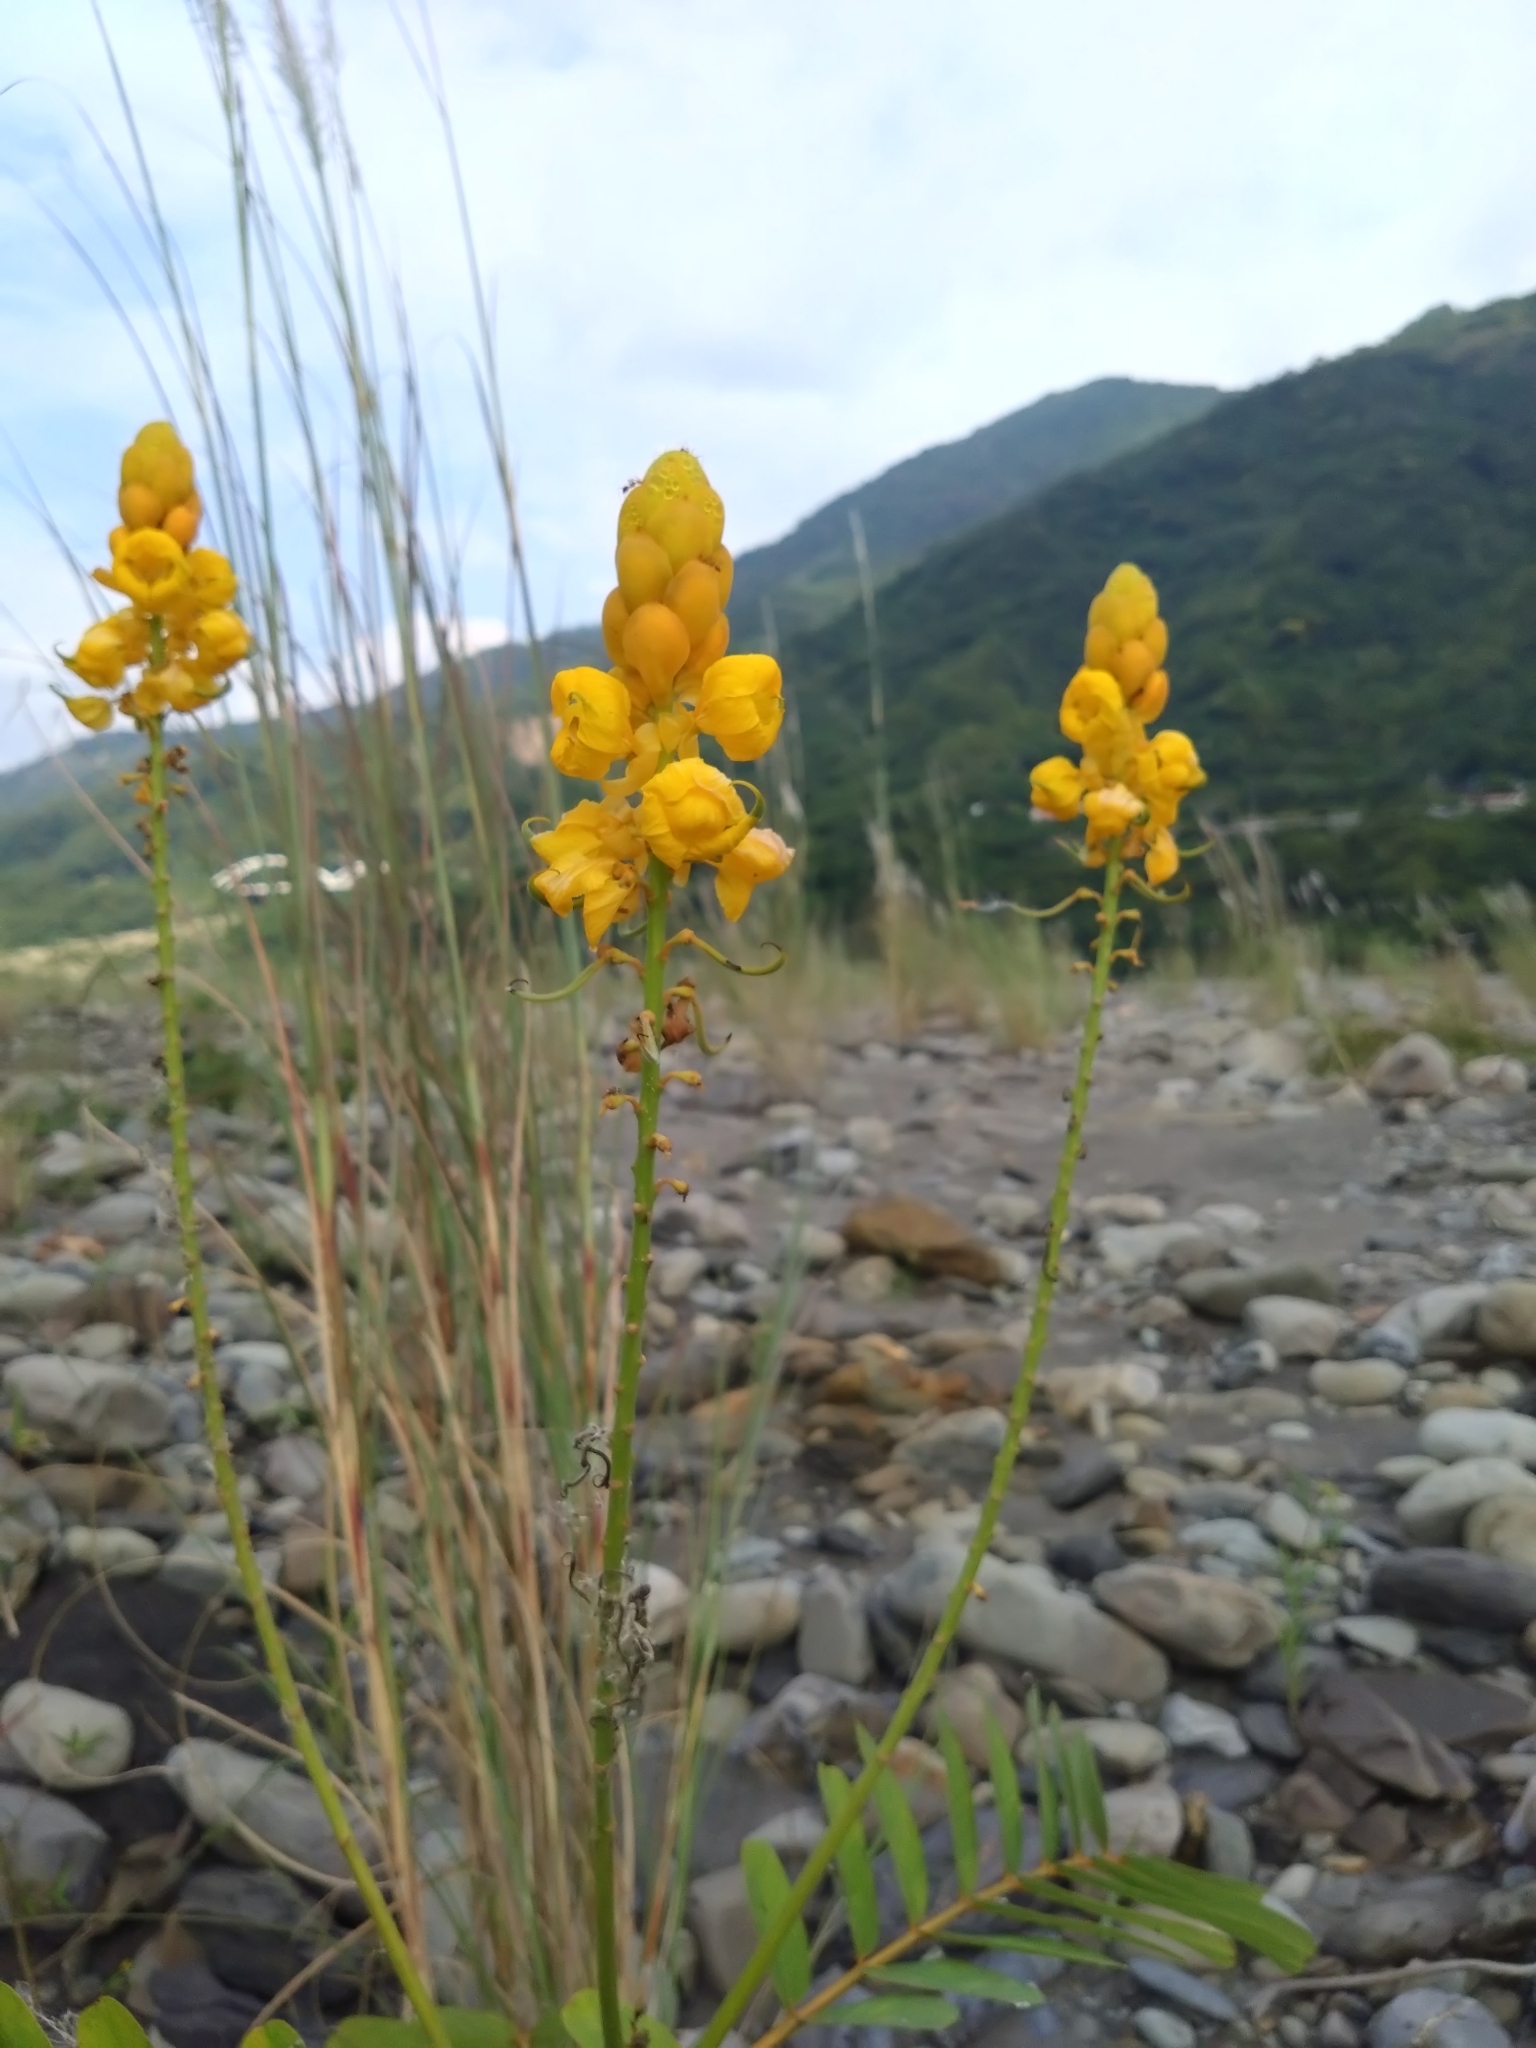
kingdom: Plantae
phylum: Tracheophyta
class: Magnoliopsida
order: Fabales
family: Fabaceae
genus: Senna
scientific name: Senna alata
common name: Emperor's candlesticks
